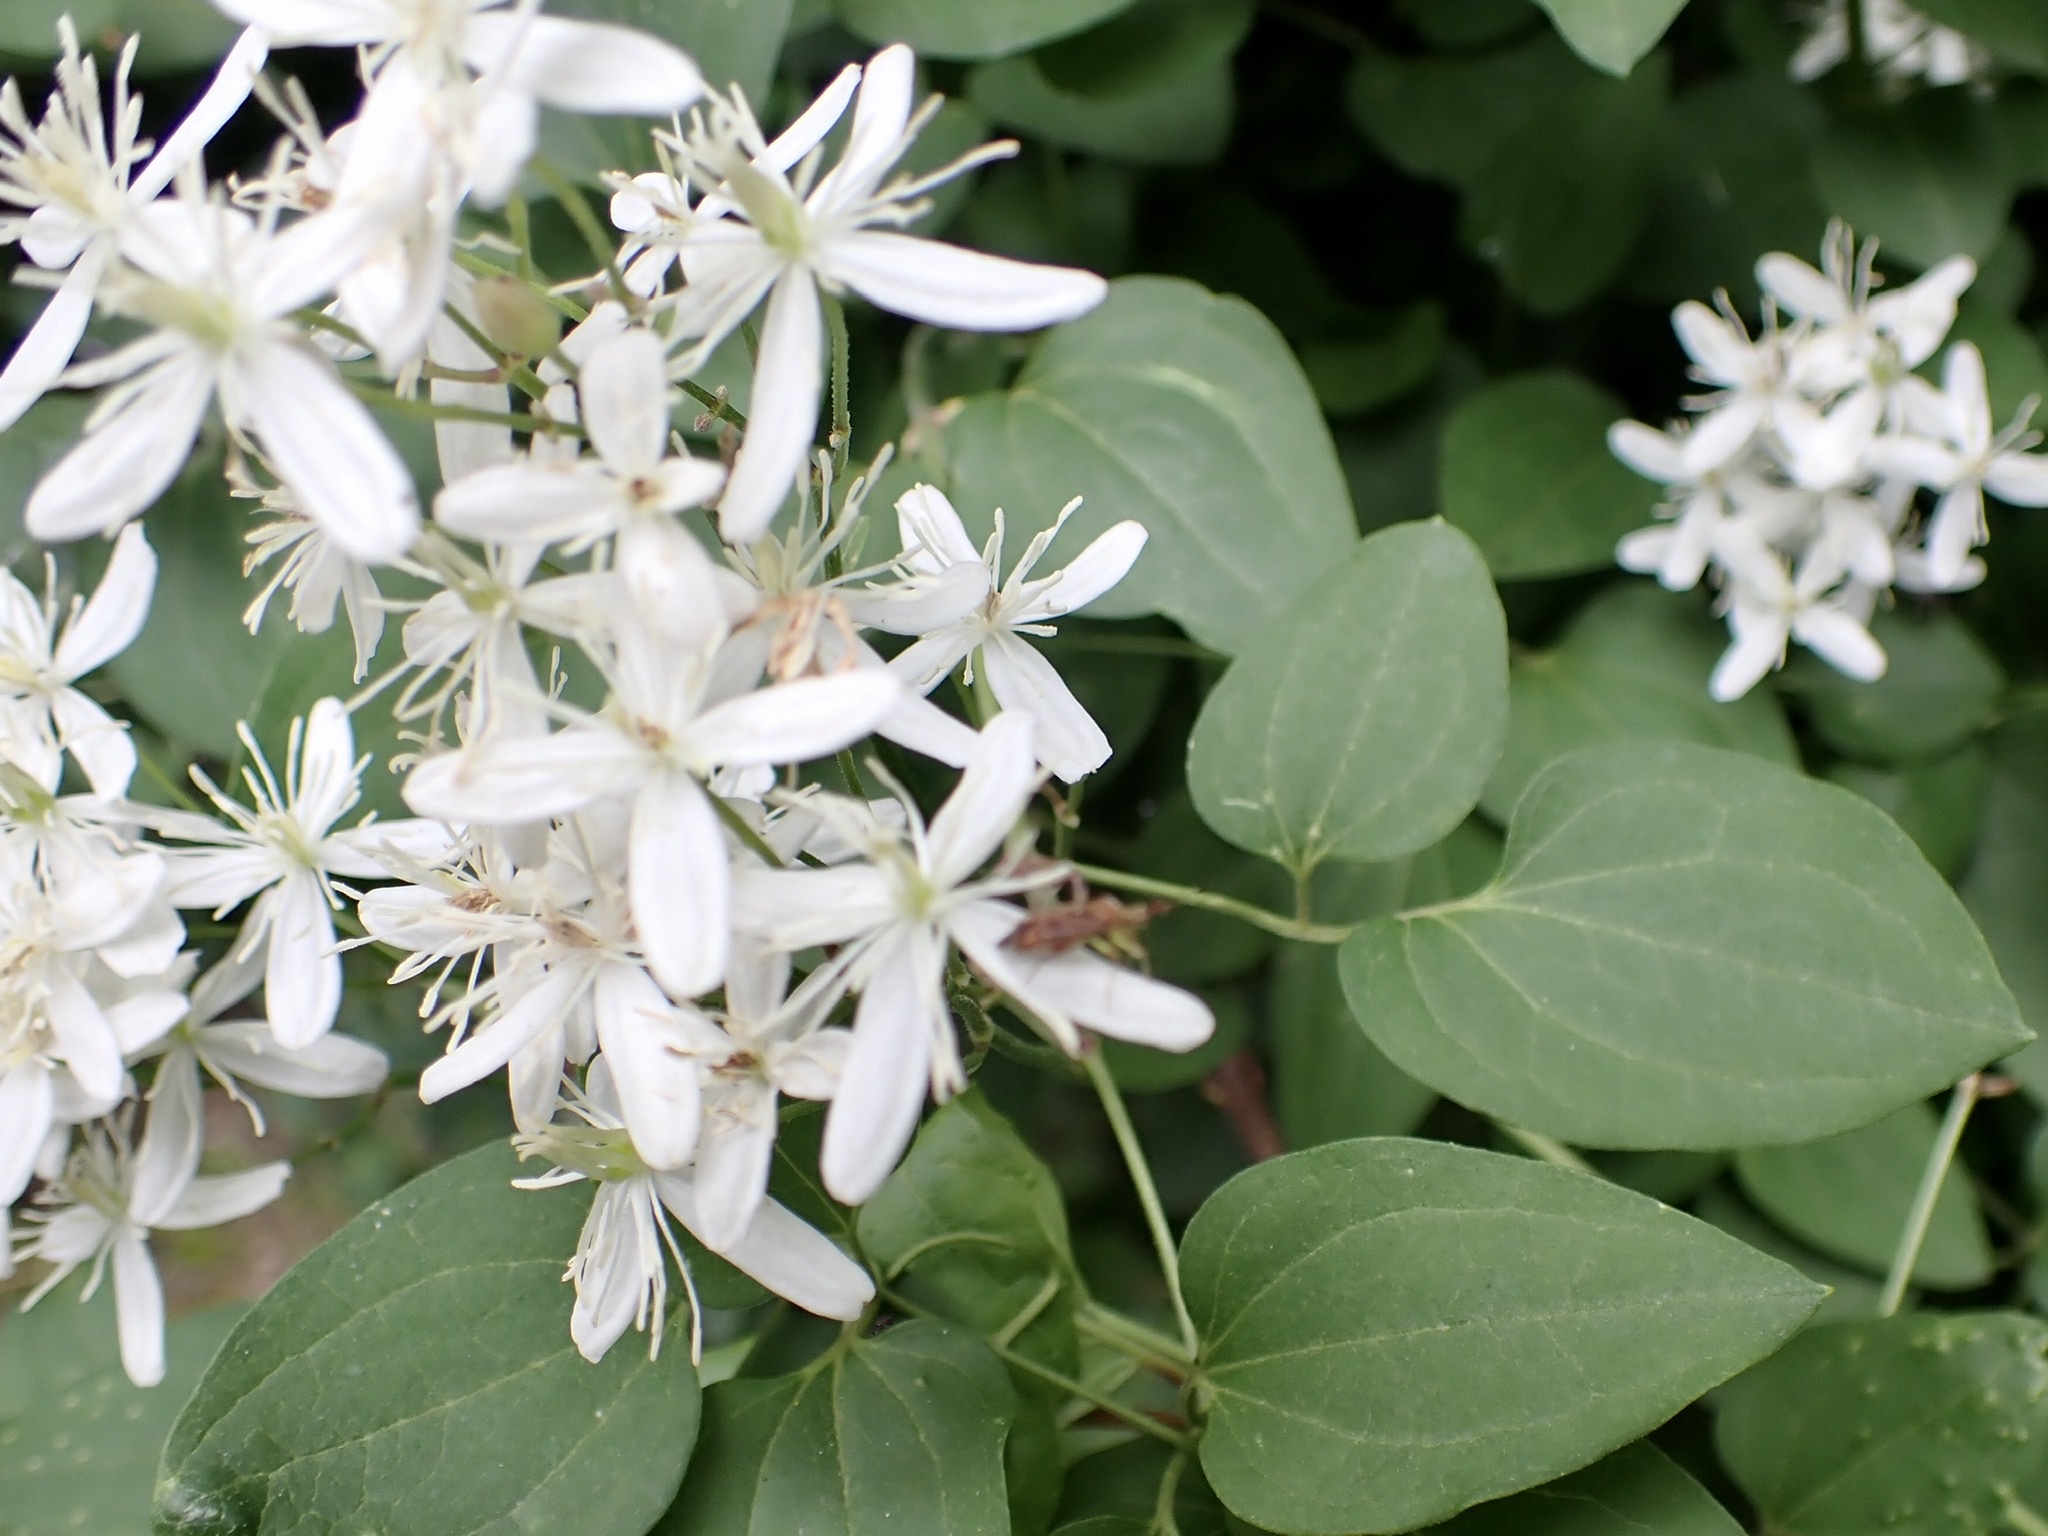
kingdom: Plantae
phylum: Tracheophyta
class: Magnoliopsida
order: Ranunculales
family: Ranunculaceae
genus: Clematis
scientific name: Clematis terniflora
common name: Sweet autumn clematis
